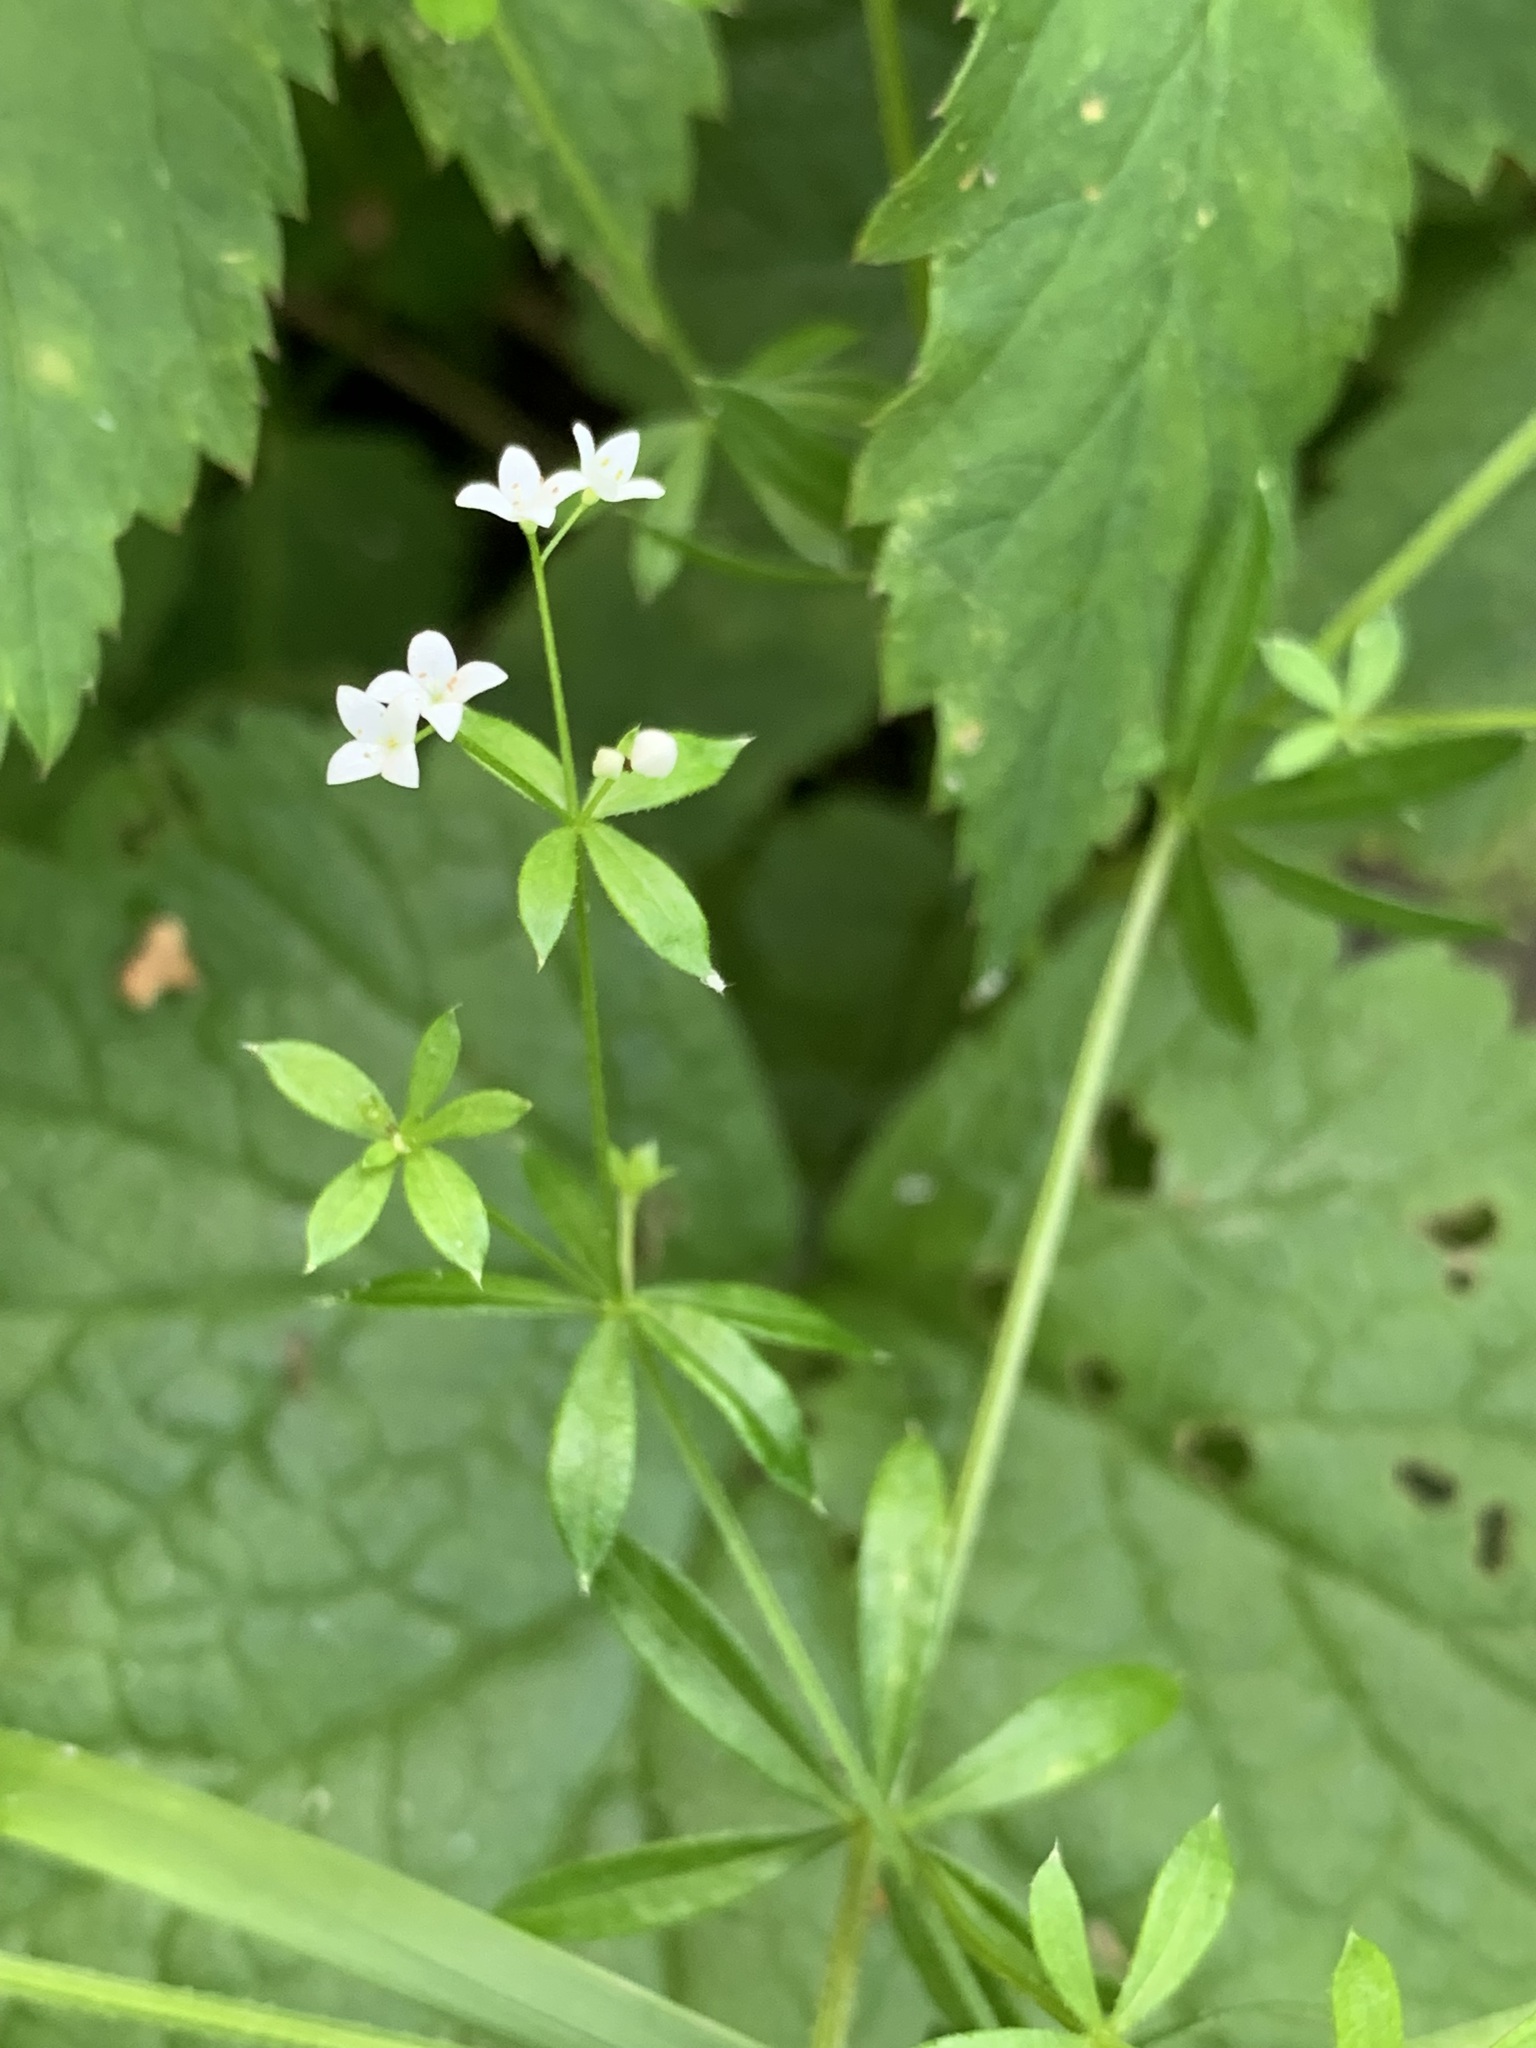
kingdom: Plantae
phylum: Tracheophyta
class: Magnoliopsida
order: Gentianales
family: Rubiaceae
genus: Galium
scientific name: Galium uliginosum
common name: Fen bedstraw
